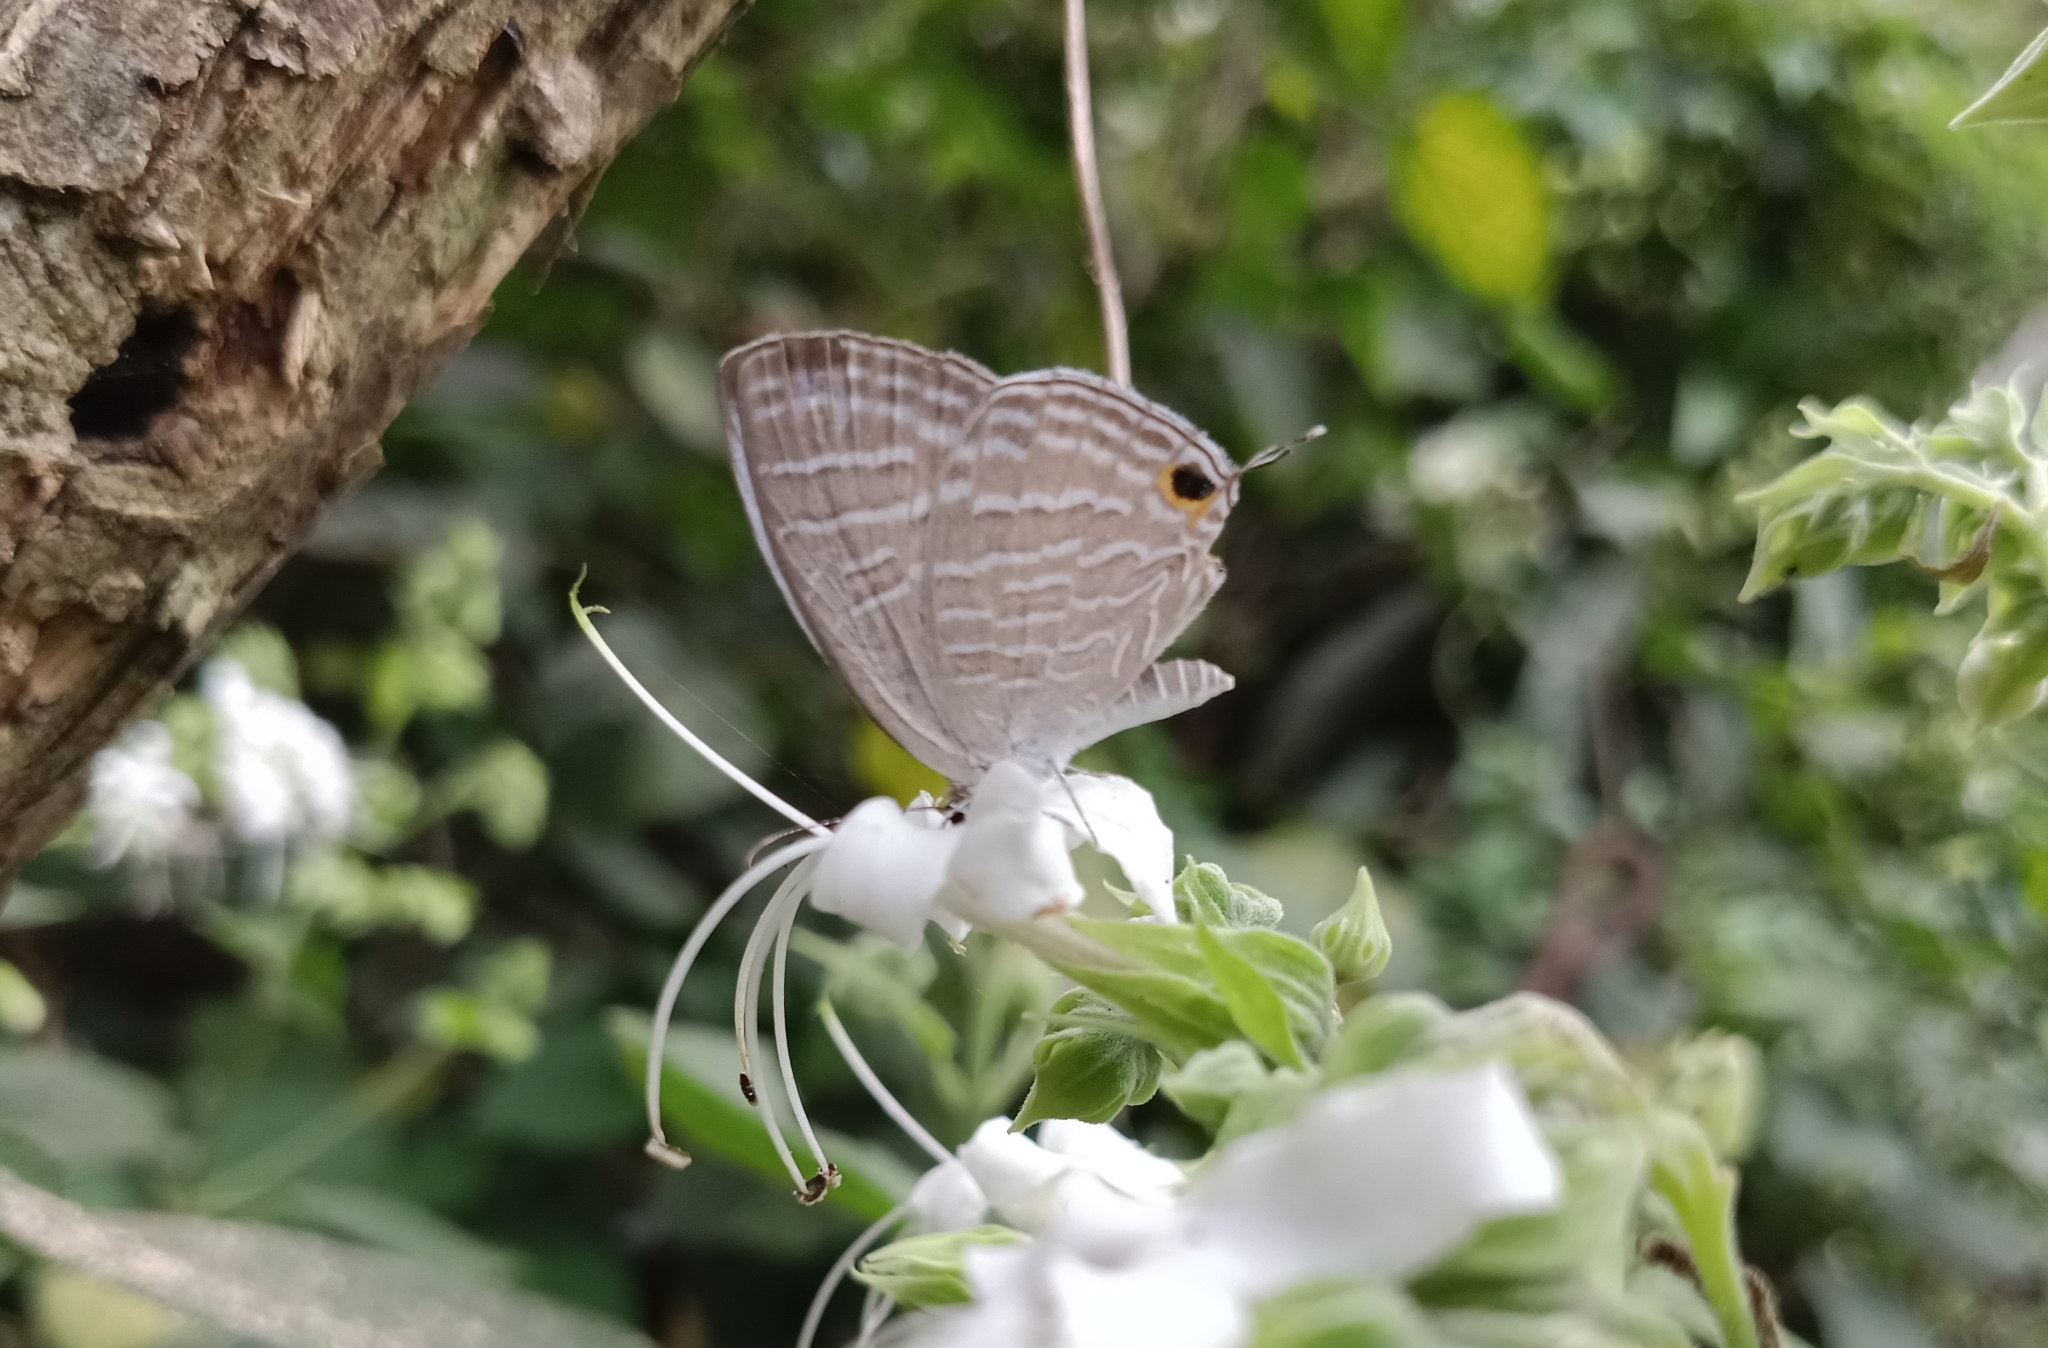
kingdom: Animalia
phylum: Arthropoda
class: Insecta
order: Lepidoptera
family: Lycaenidae
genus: Jamides
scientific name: Jamides celeno
